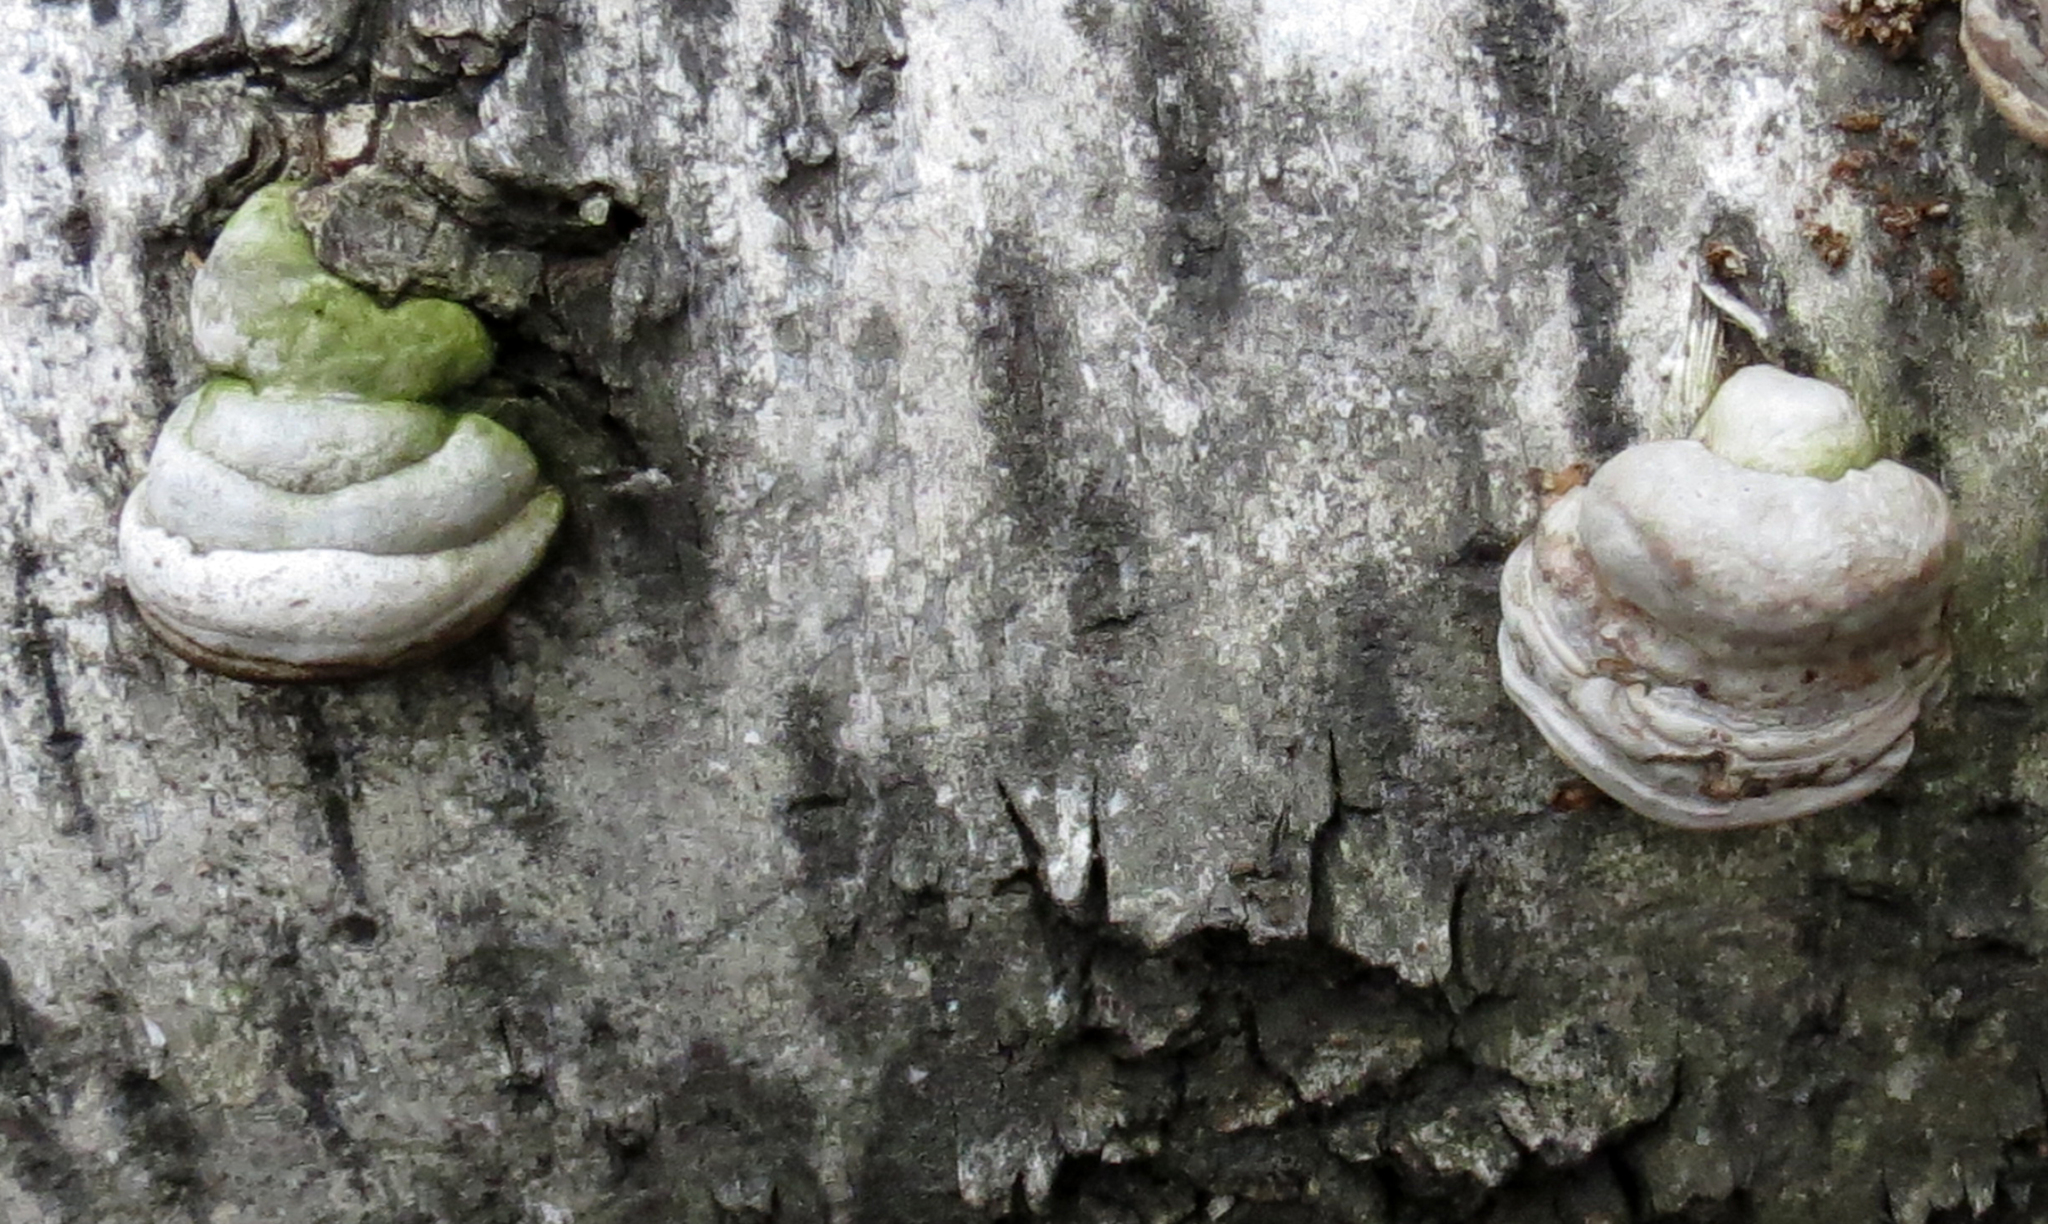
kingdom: Fungi
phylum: Basidiomycota
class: Agaricomycetes
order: Polyporales
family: Polyporaceae
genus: Fomes
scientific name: Fomes fomentarius
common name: Hoof fungus
